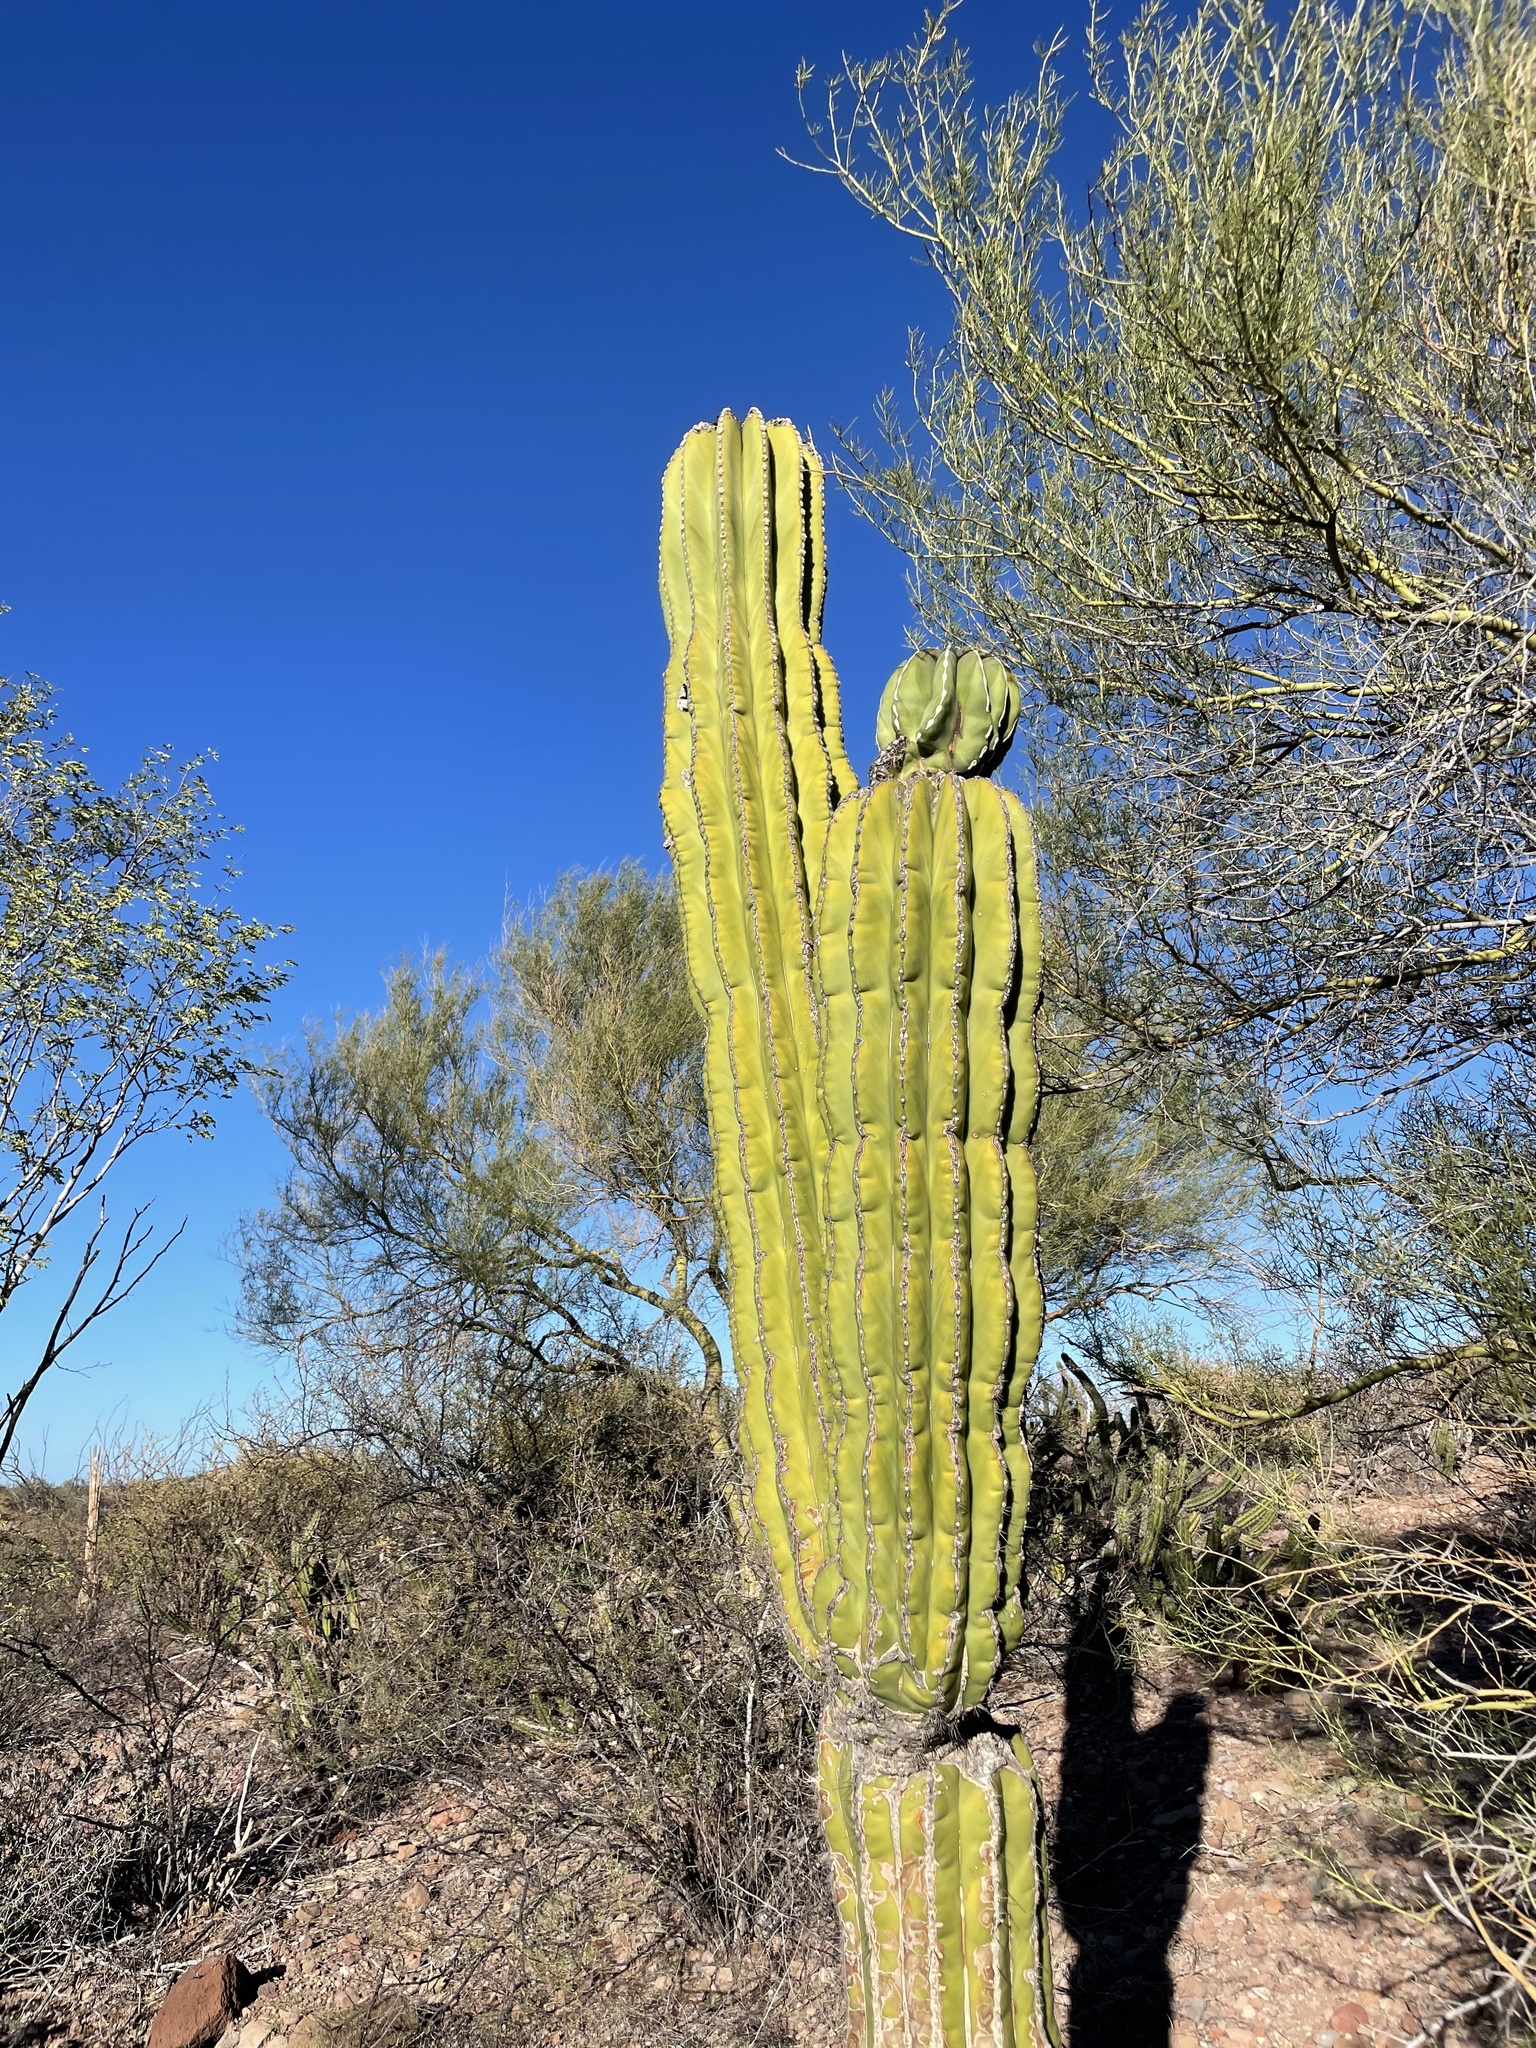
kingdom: Plantae
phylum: Tracheophyta
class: Magnoliopsida
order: Caryophyllales
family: Cactaceae
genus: Pachycereus
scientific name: Pachycereus pringlei
